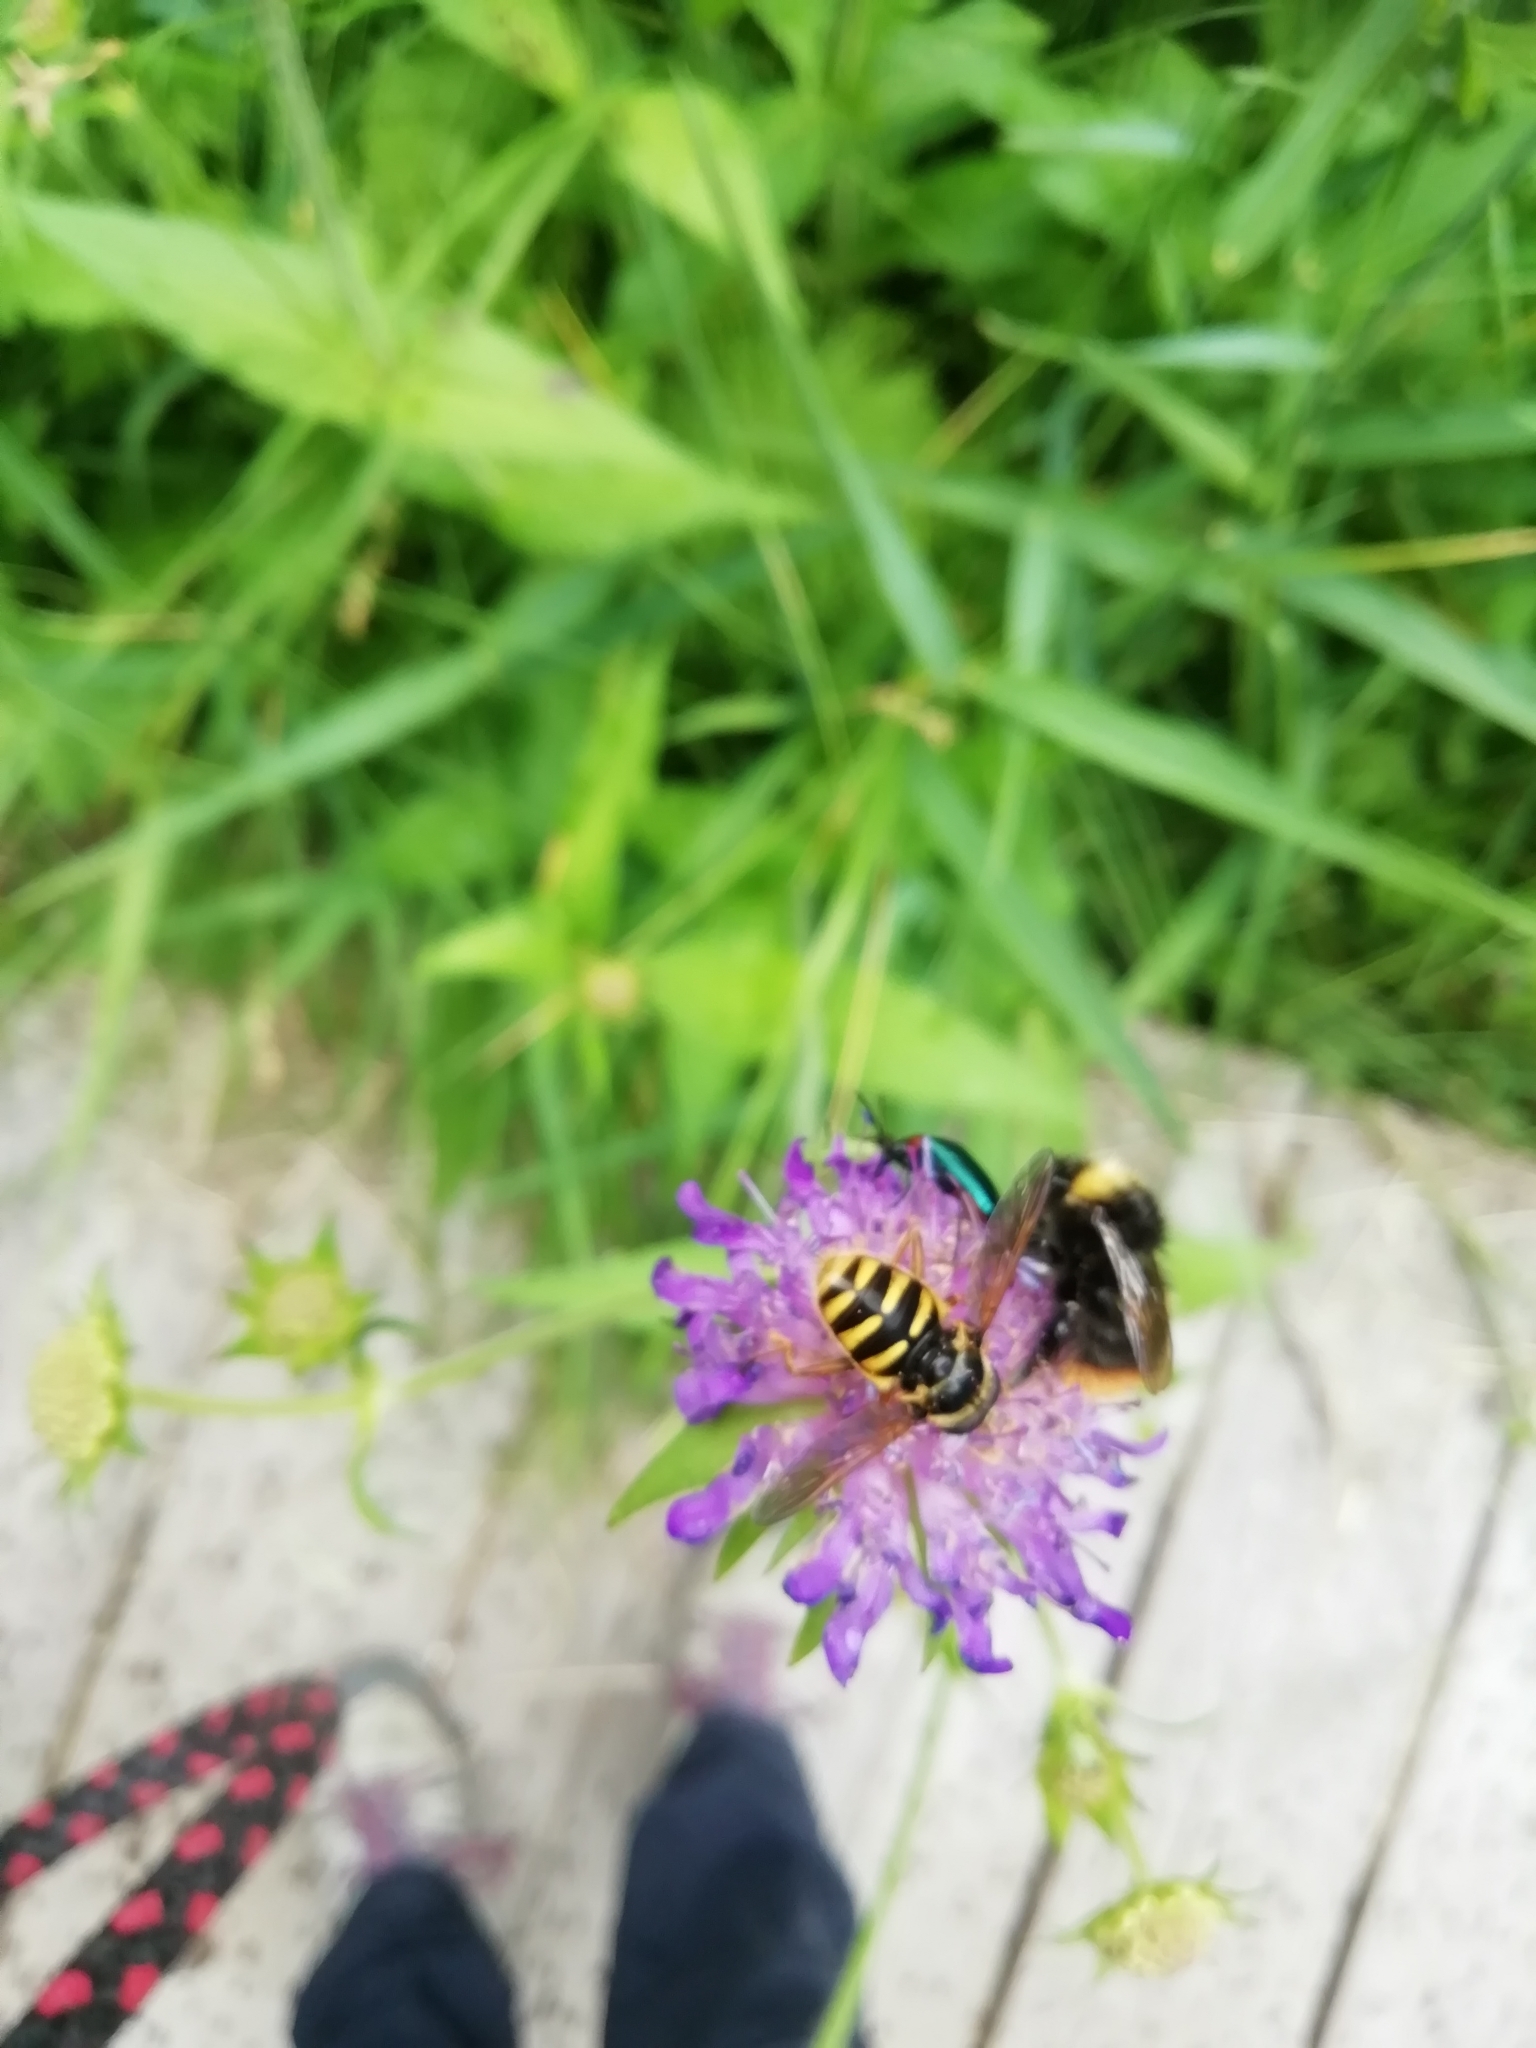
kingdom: Animalia
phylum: Arthropoda
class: Insecta
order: Diptera
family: Syrphidae
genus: Sericomyia
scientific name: Sericomyia silentis
